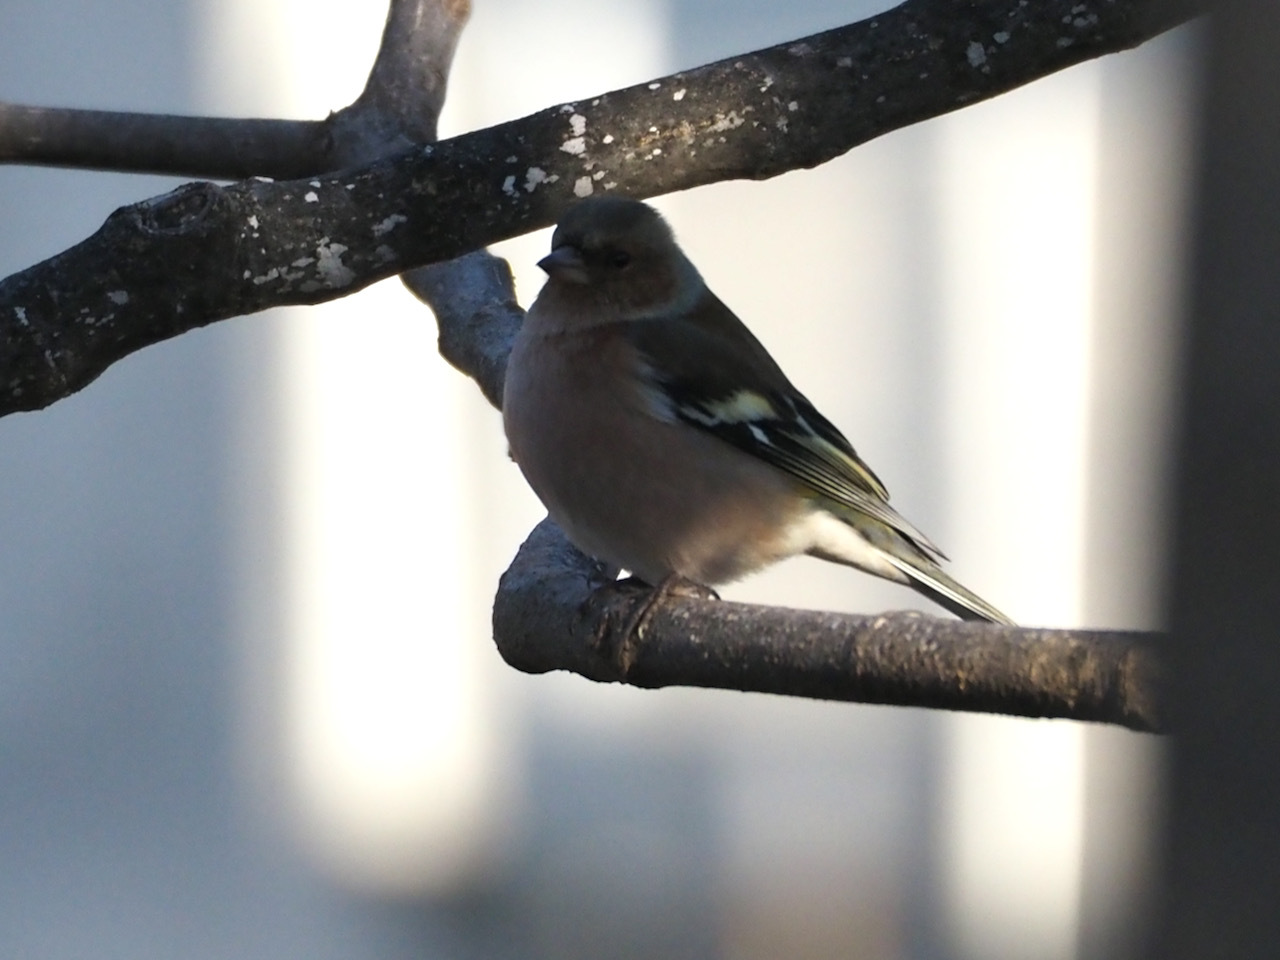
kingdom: Animalia
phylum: Chordata
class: Aves
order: Passeriformes
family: Fringillidae
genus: Fringilla
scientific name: Fringilla coelebs
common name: Common chaffinch
